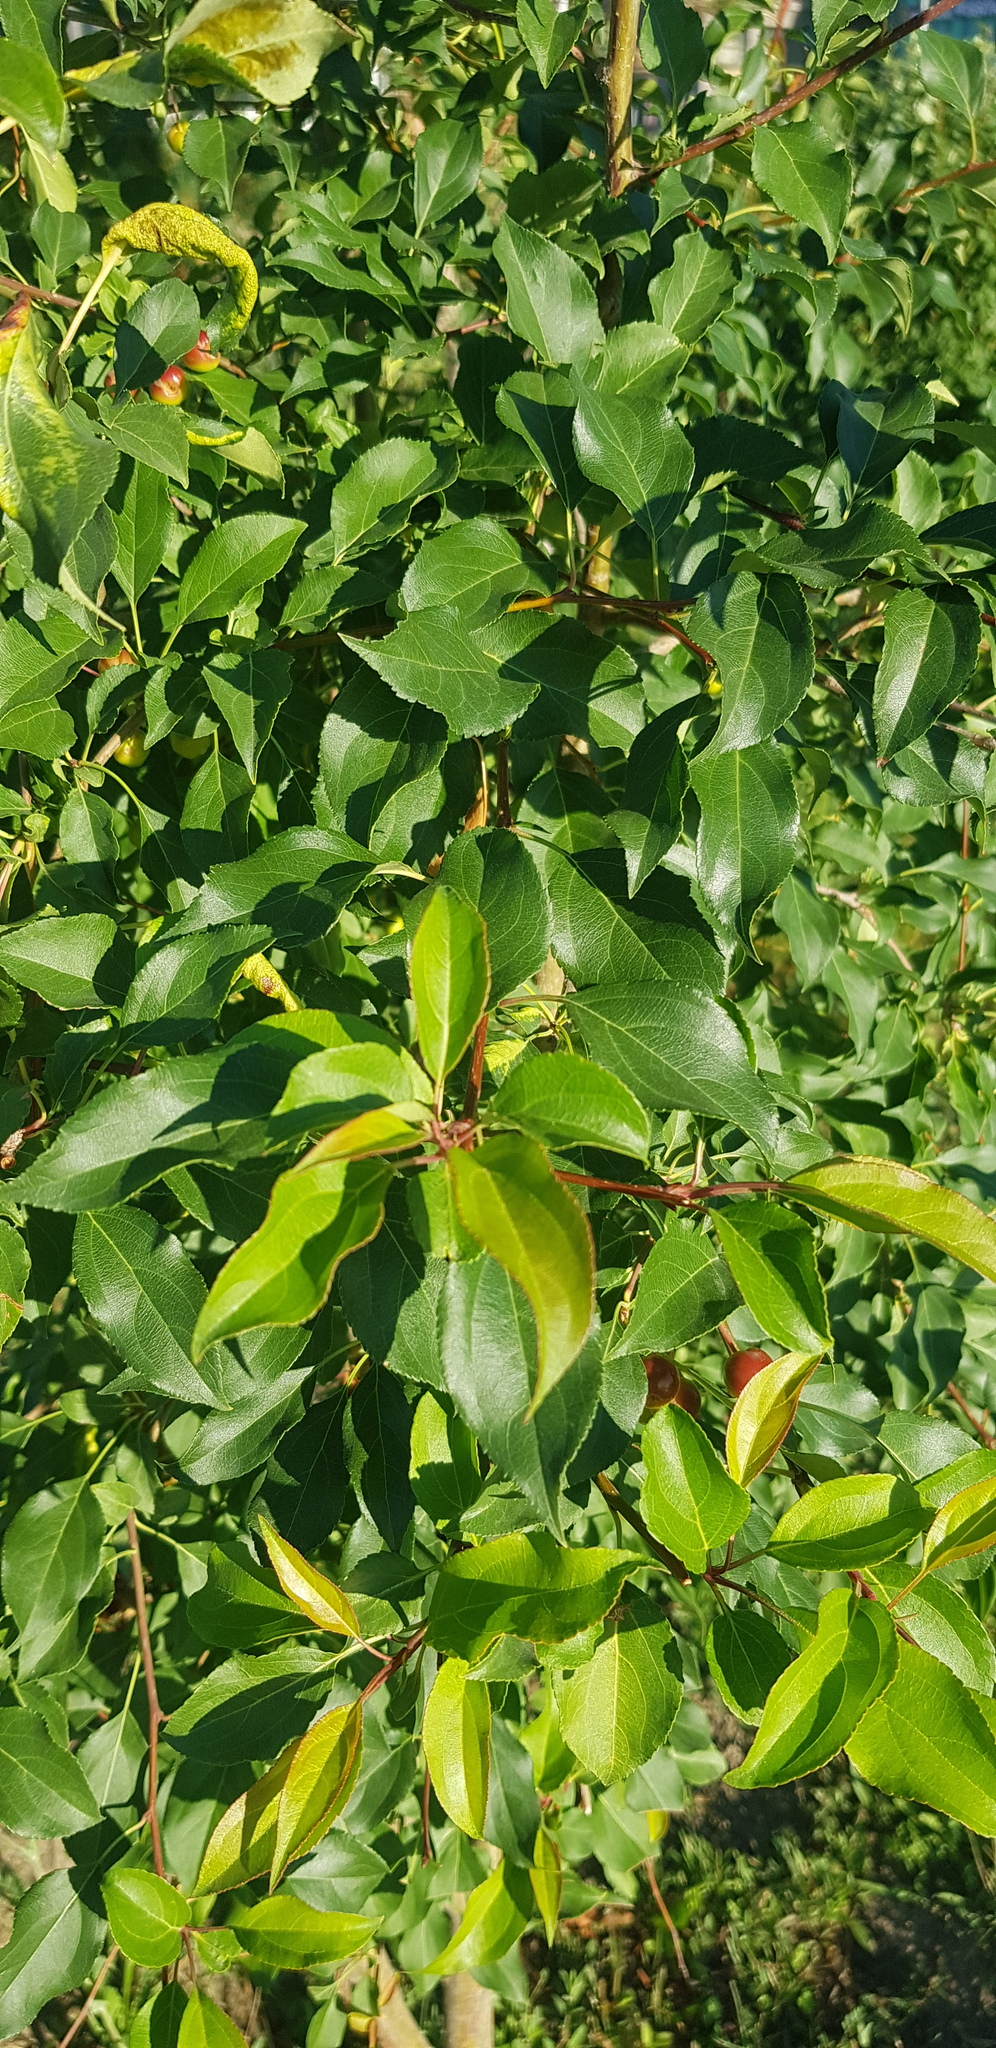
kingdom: Plantae
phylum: Tracheophyta
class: Magnoliopsida
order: Rosales
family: Rosaceae
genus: Prunus
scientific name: Prunus padus
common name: Bird cherry
